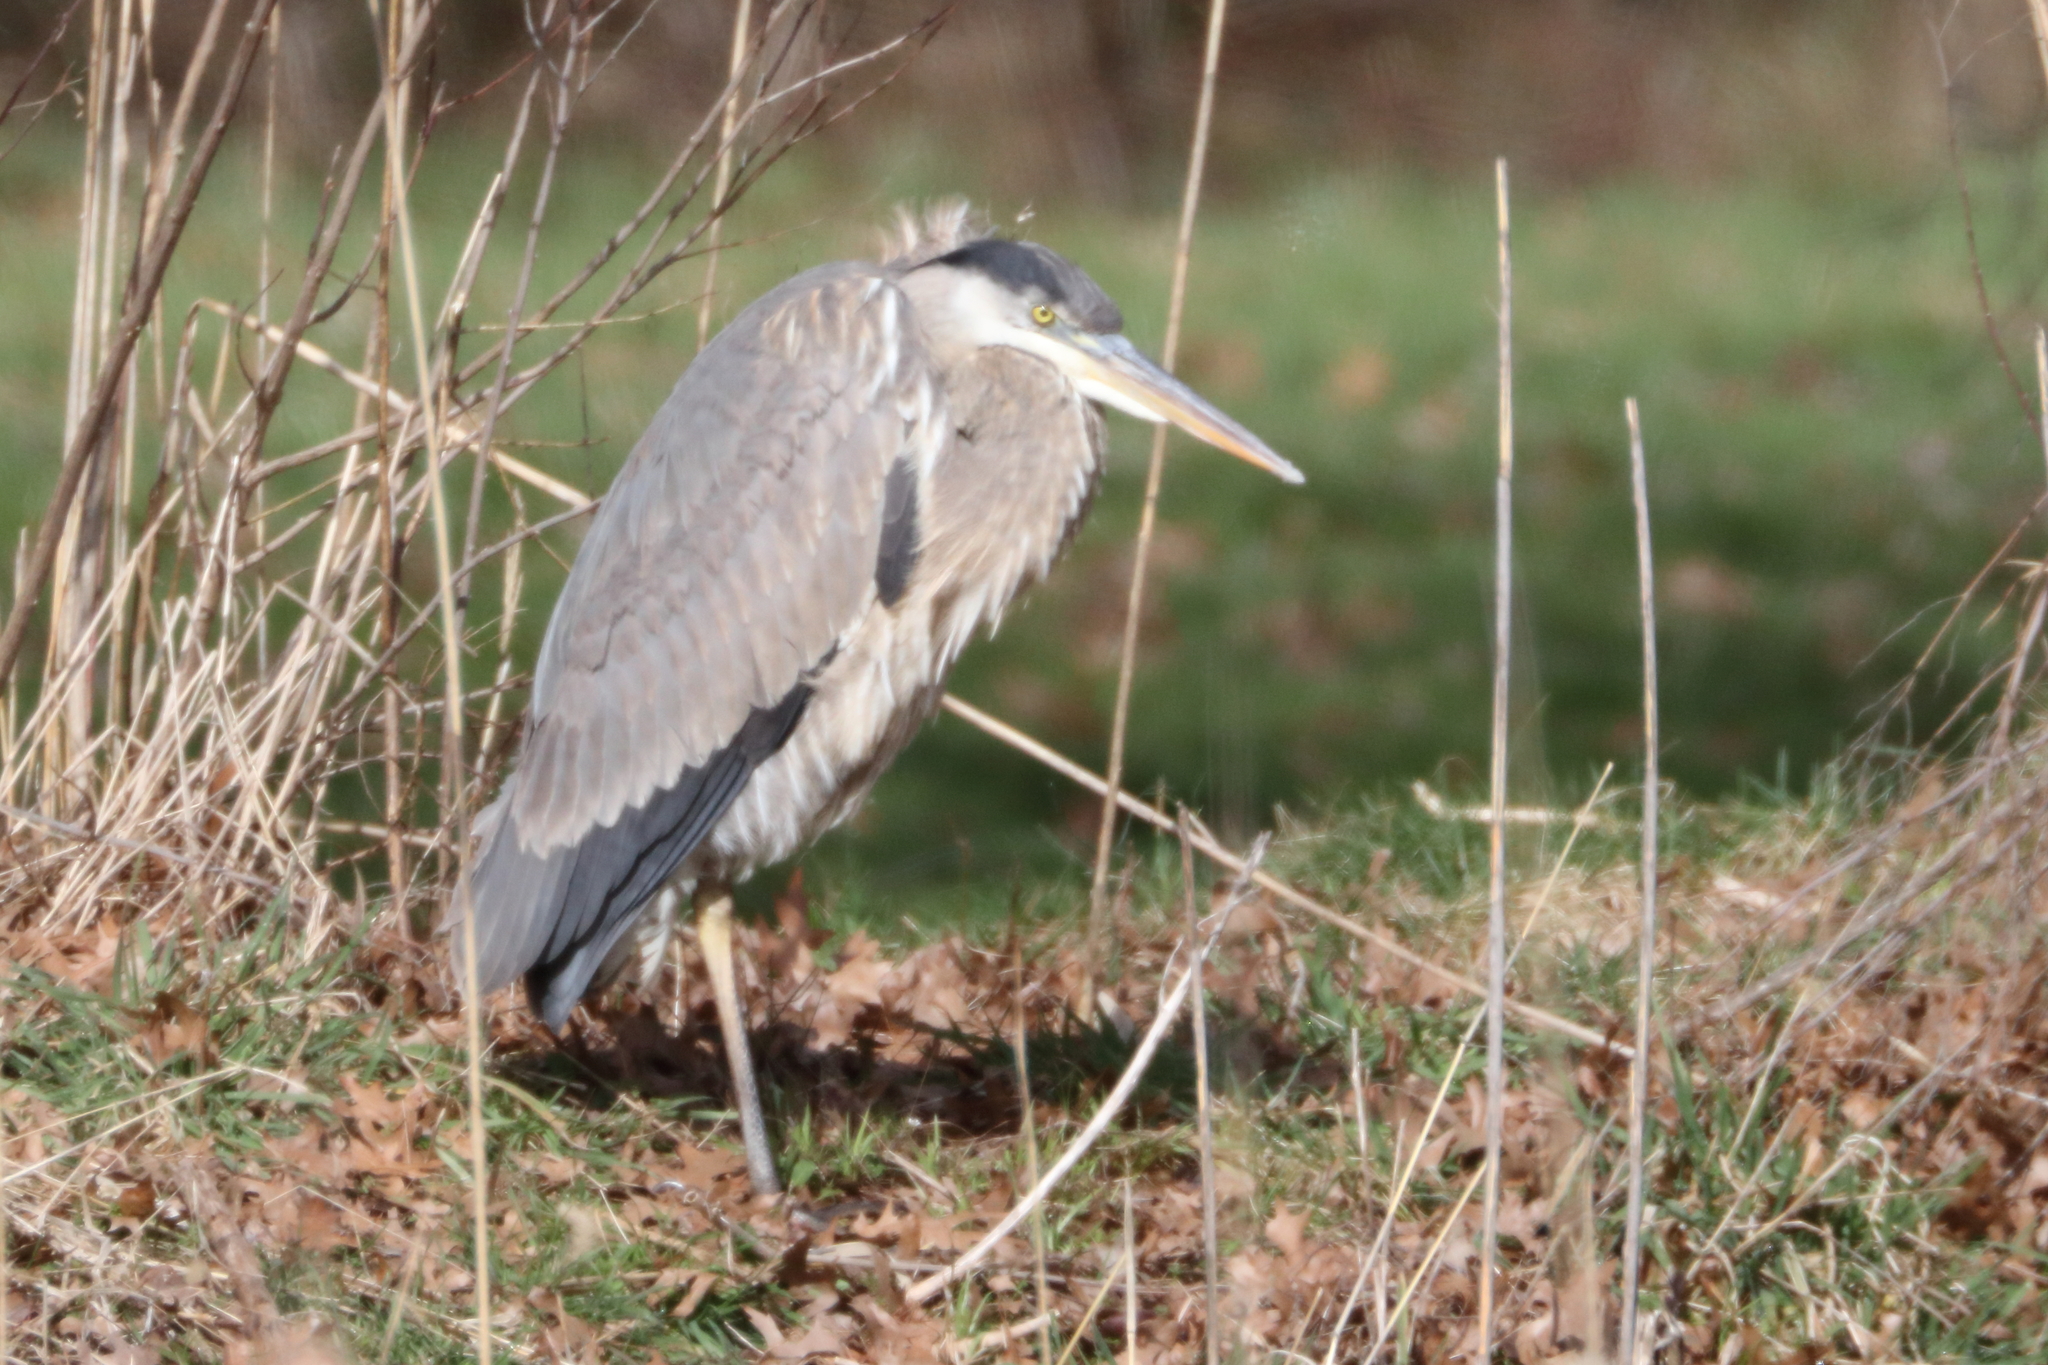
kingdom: Animalia
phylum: Chordata
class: Aves
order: Pelecaniformes
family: Ardeidae
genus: Ardea
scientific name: Ardea herodias
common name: Great blue heron
